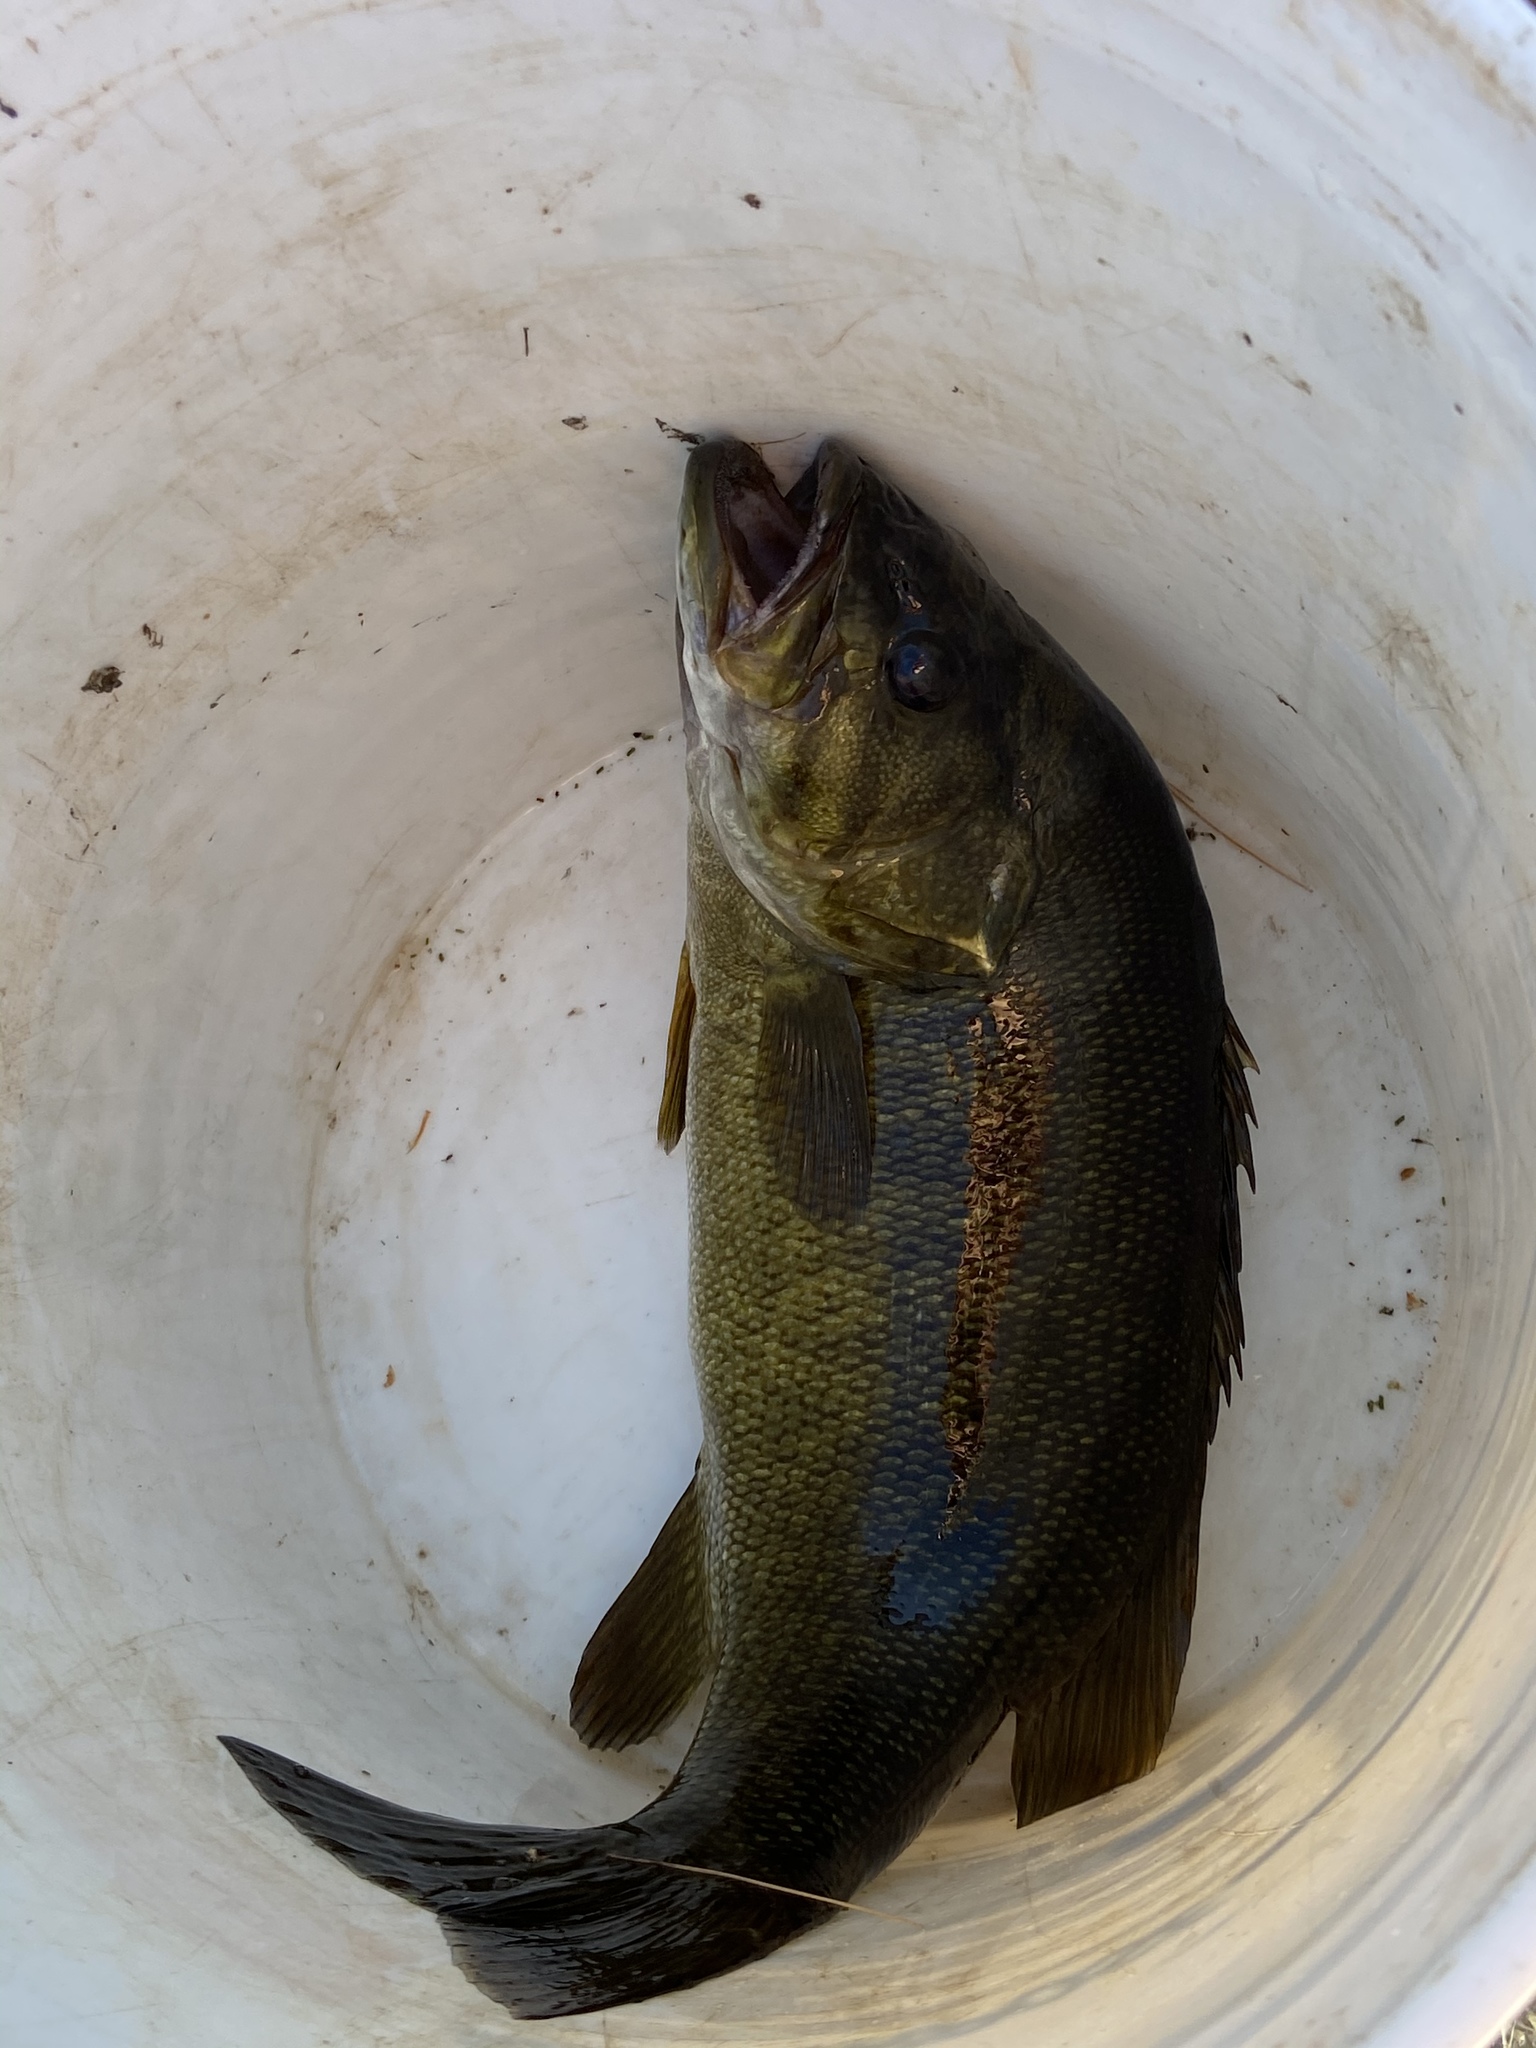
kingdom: Animalia
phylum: Chordata
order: Perciformes
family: Centrarchidae
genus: Micropterus
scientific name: Micropterus dolomieu
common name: Smallmouth bass
